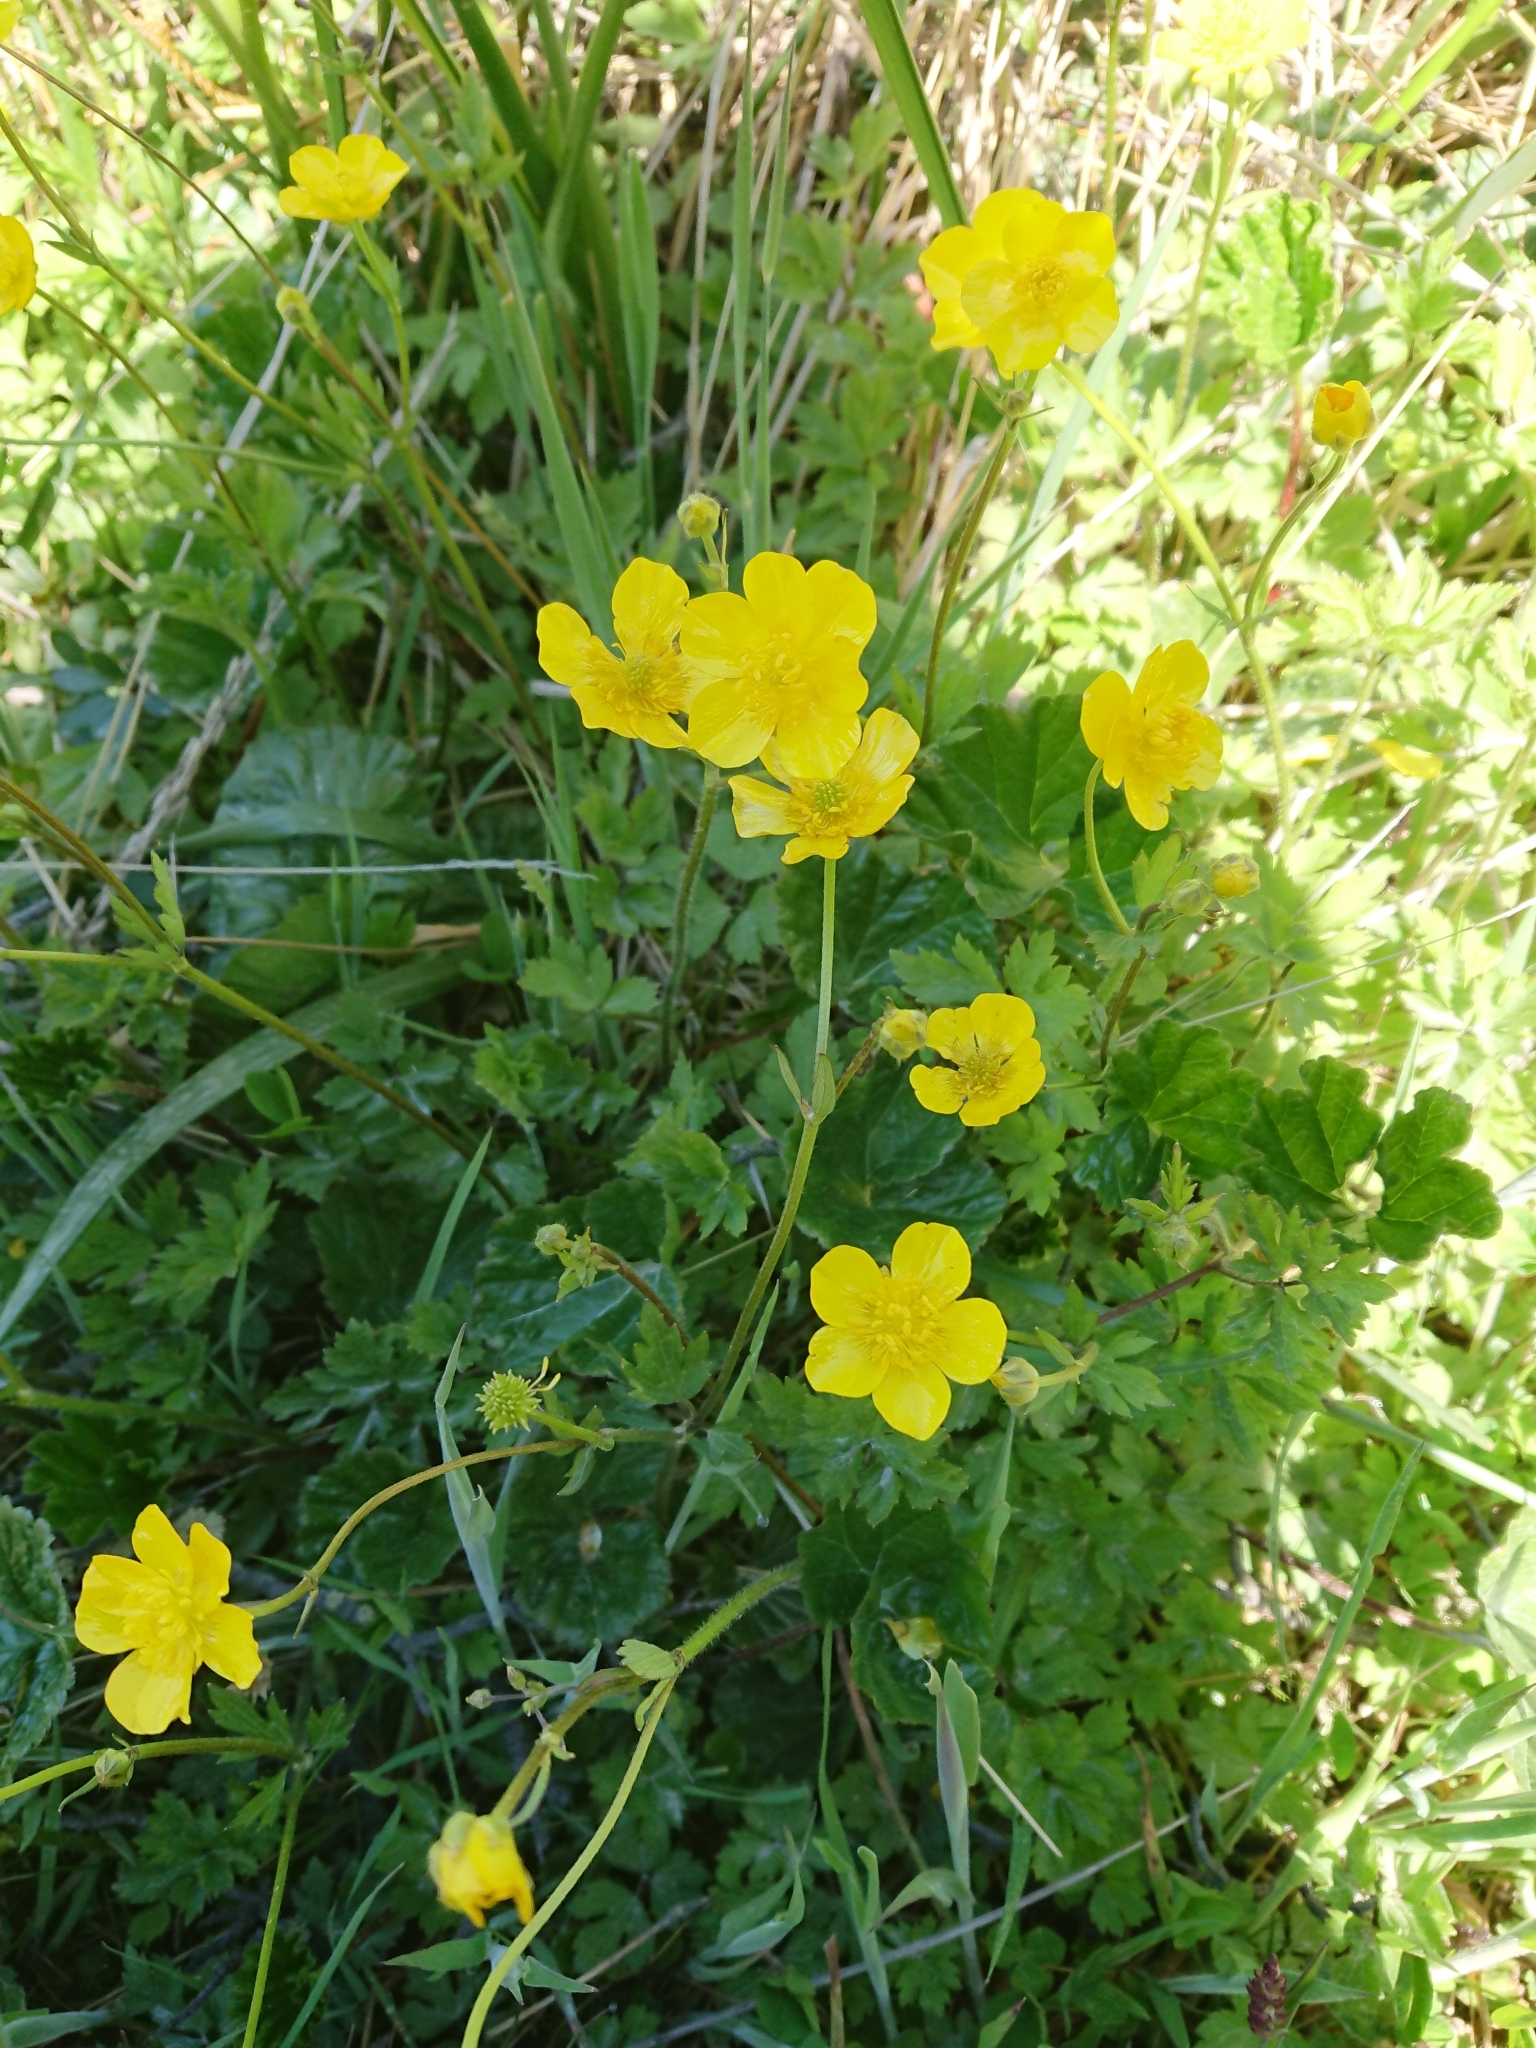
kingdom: Plantae
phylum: Tracheophyta
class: Magnoliopsida
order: Ranunculales
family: Ranunculaceae
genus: Ranunculus
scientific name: Ranunculus repens
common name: Creeping buttercup
